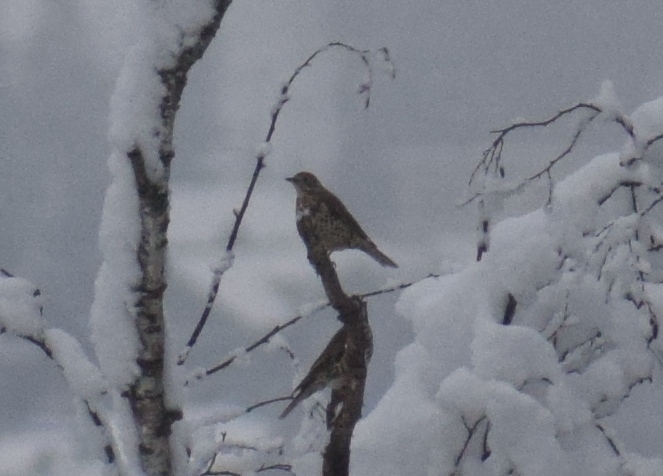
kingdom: Animalia
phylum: Chordata
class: Aves
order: Passeriformes
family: Turdidae
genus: Turdus
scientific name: Turdus viscivorus
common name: Mistle thrush
